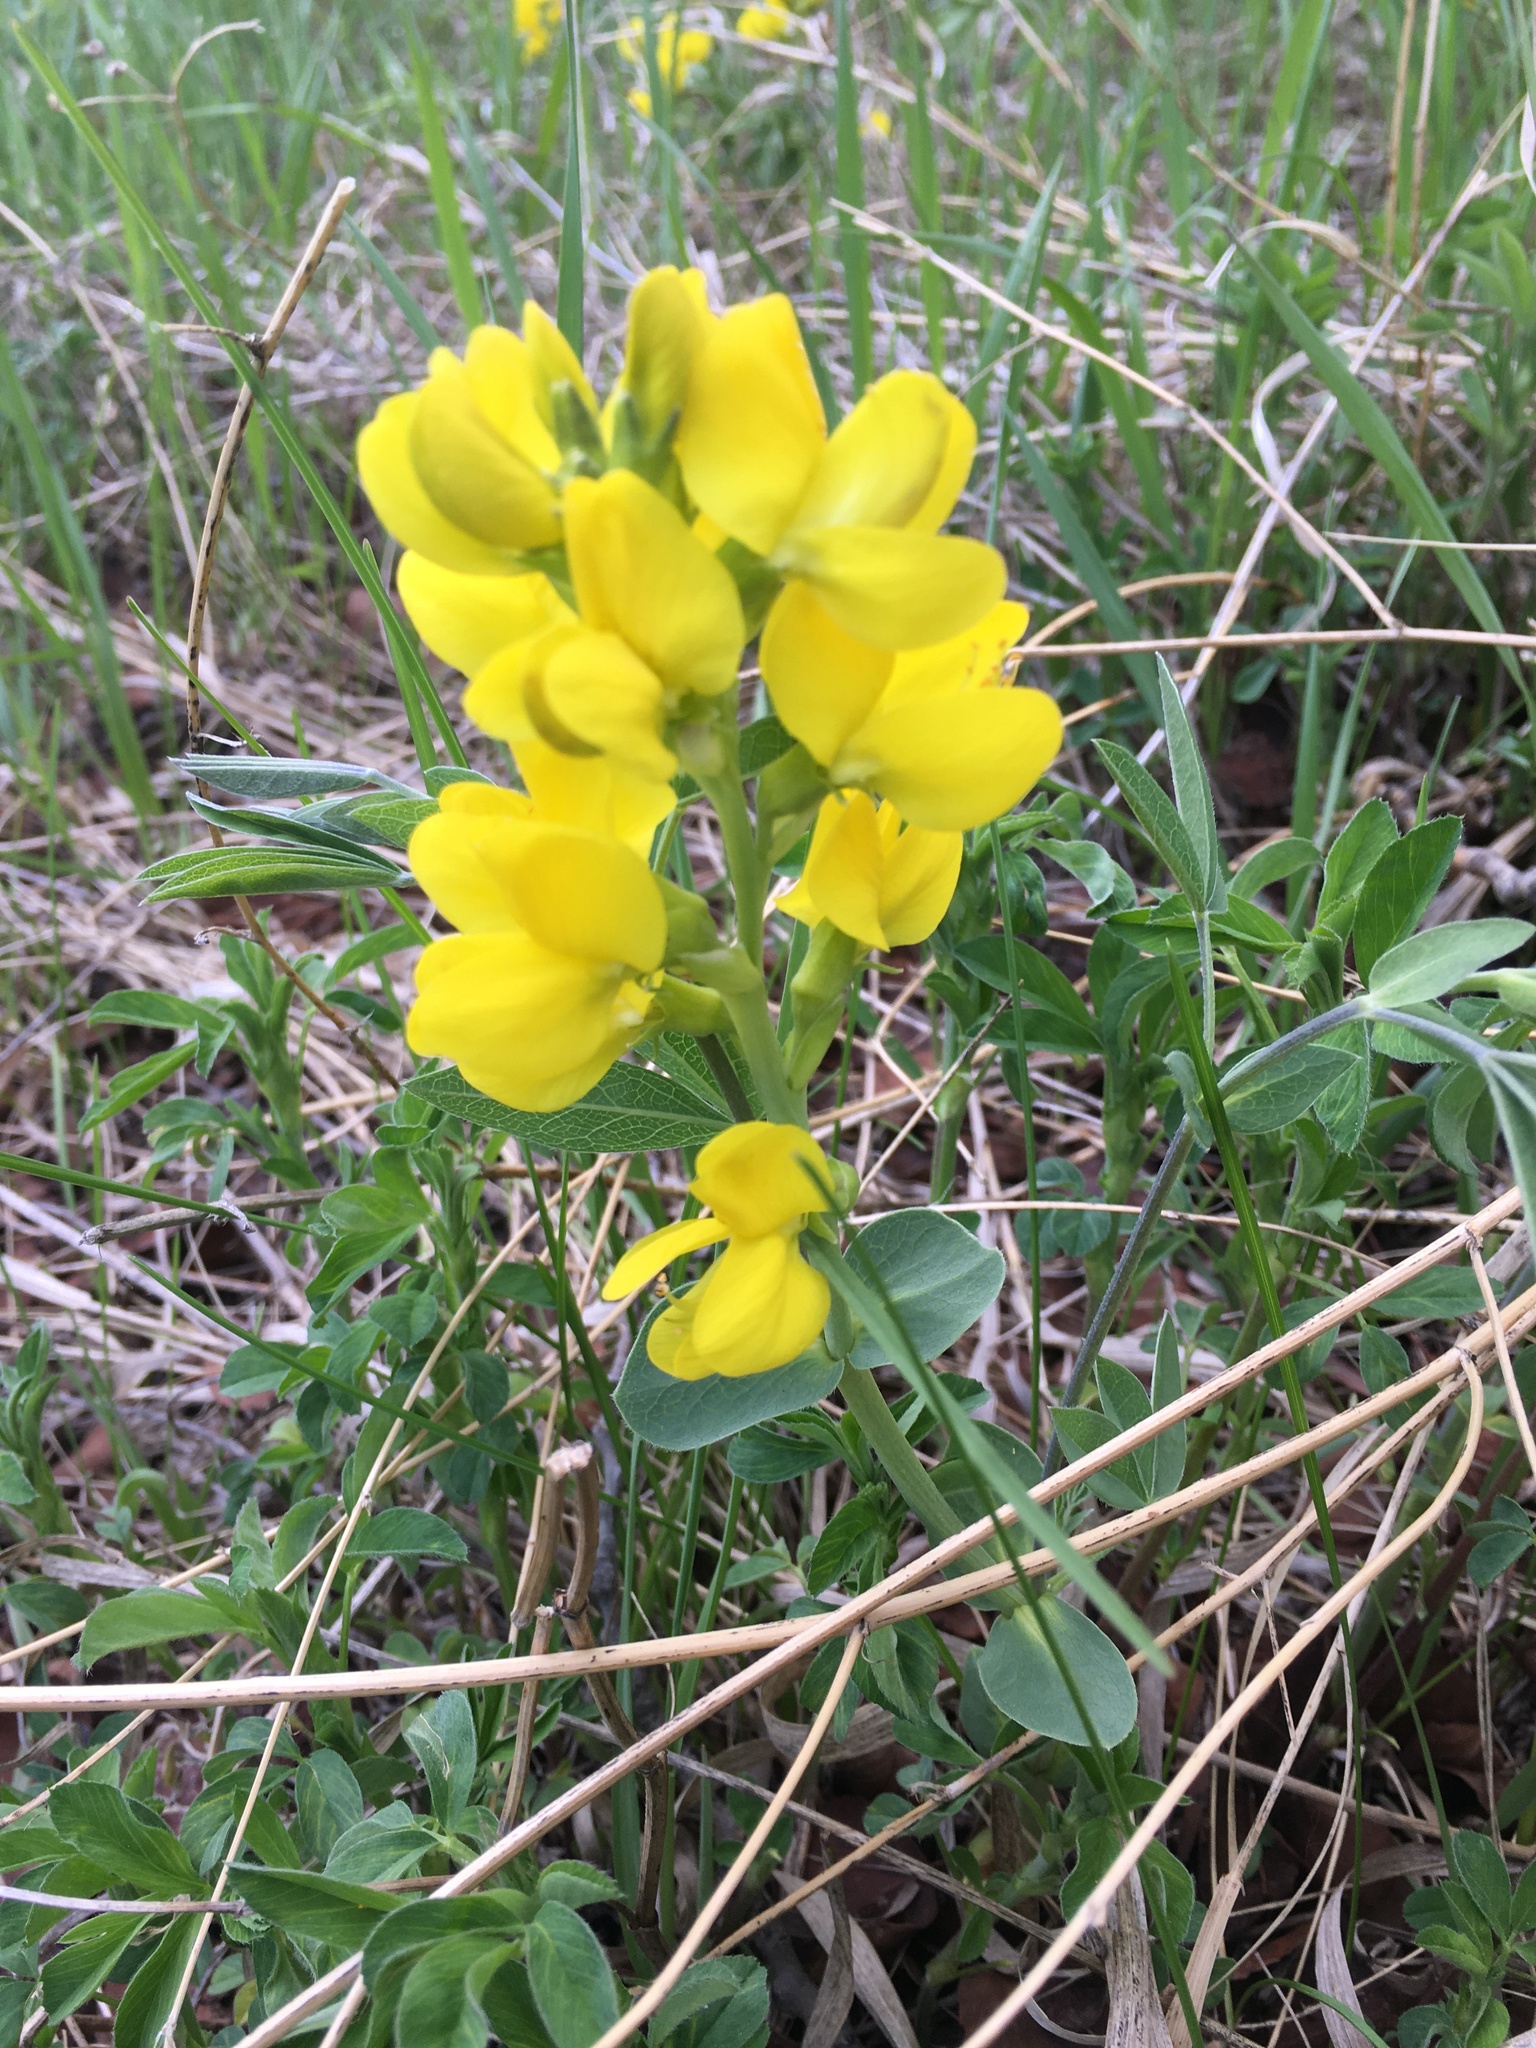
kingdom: Plantae
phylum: Tracheophyta
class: Magnoliopsida
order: Fabales
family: Fabaceae
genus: Thermopsis
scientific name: Thermopsis rhombifolia
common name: Circle-pod-pea
